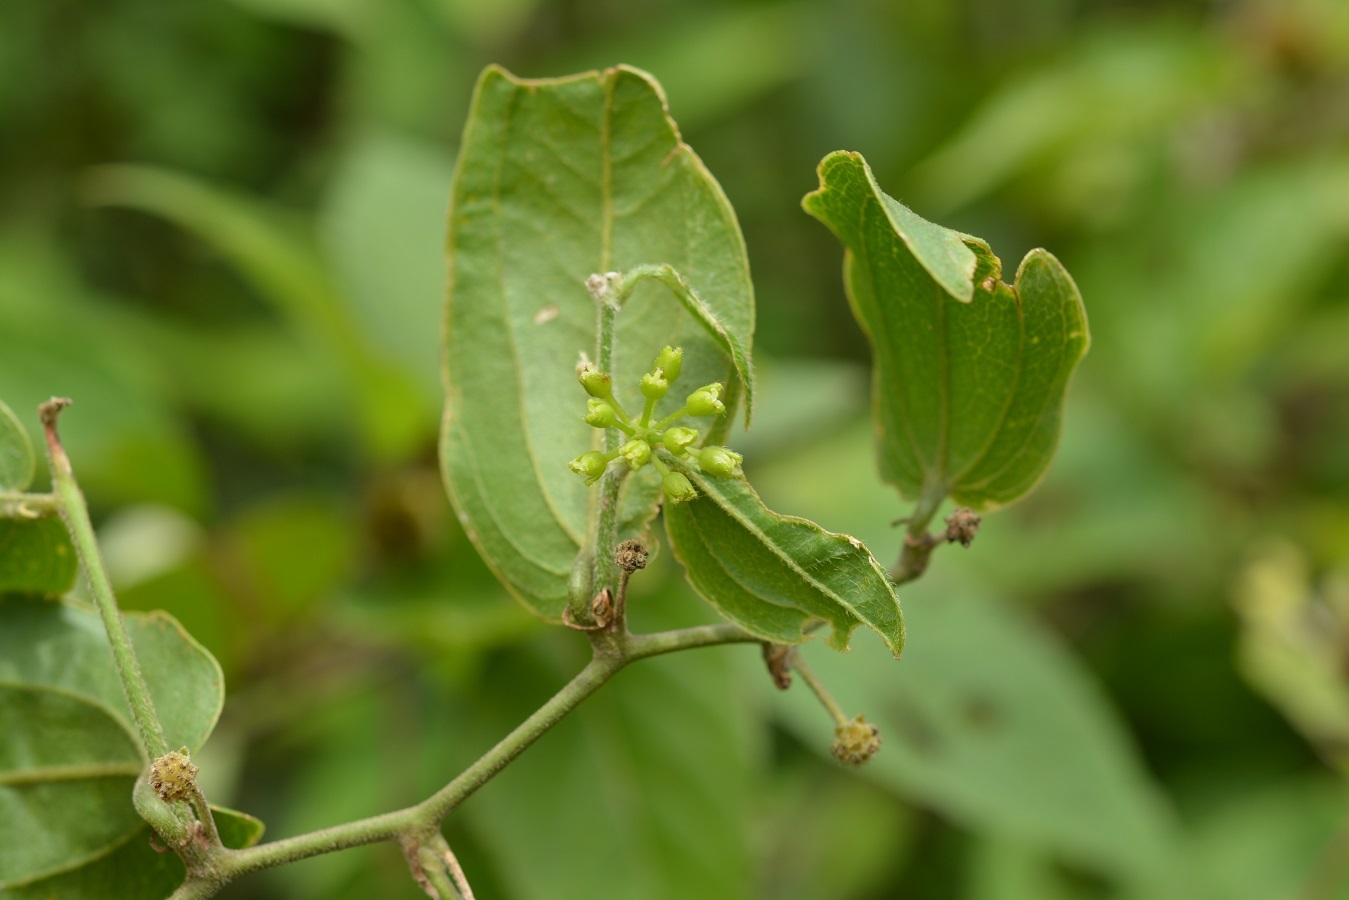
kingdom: Plantae
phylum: Tracheophyta
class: Liliopsida
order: Liliales
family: Smilacaceae
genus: Smilax
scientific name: Smilax velutina
